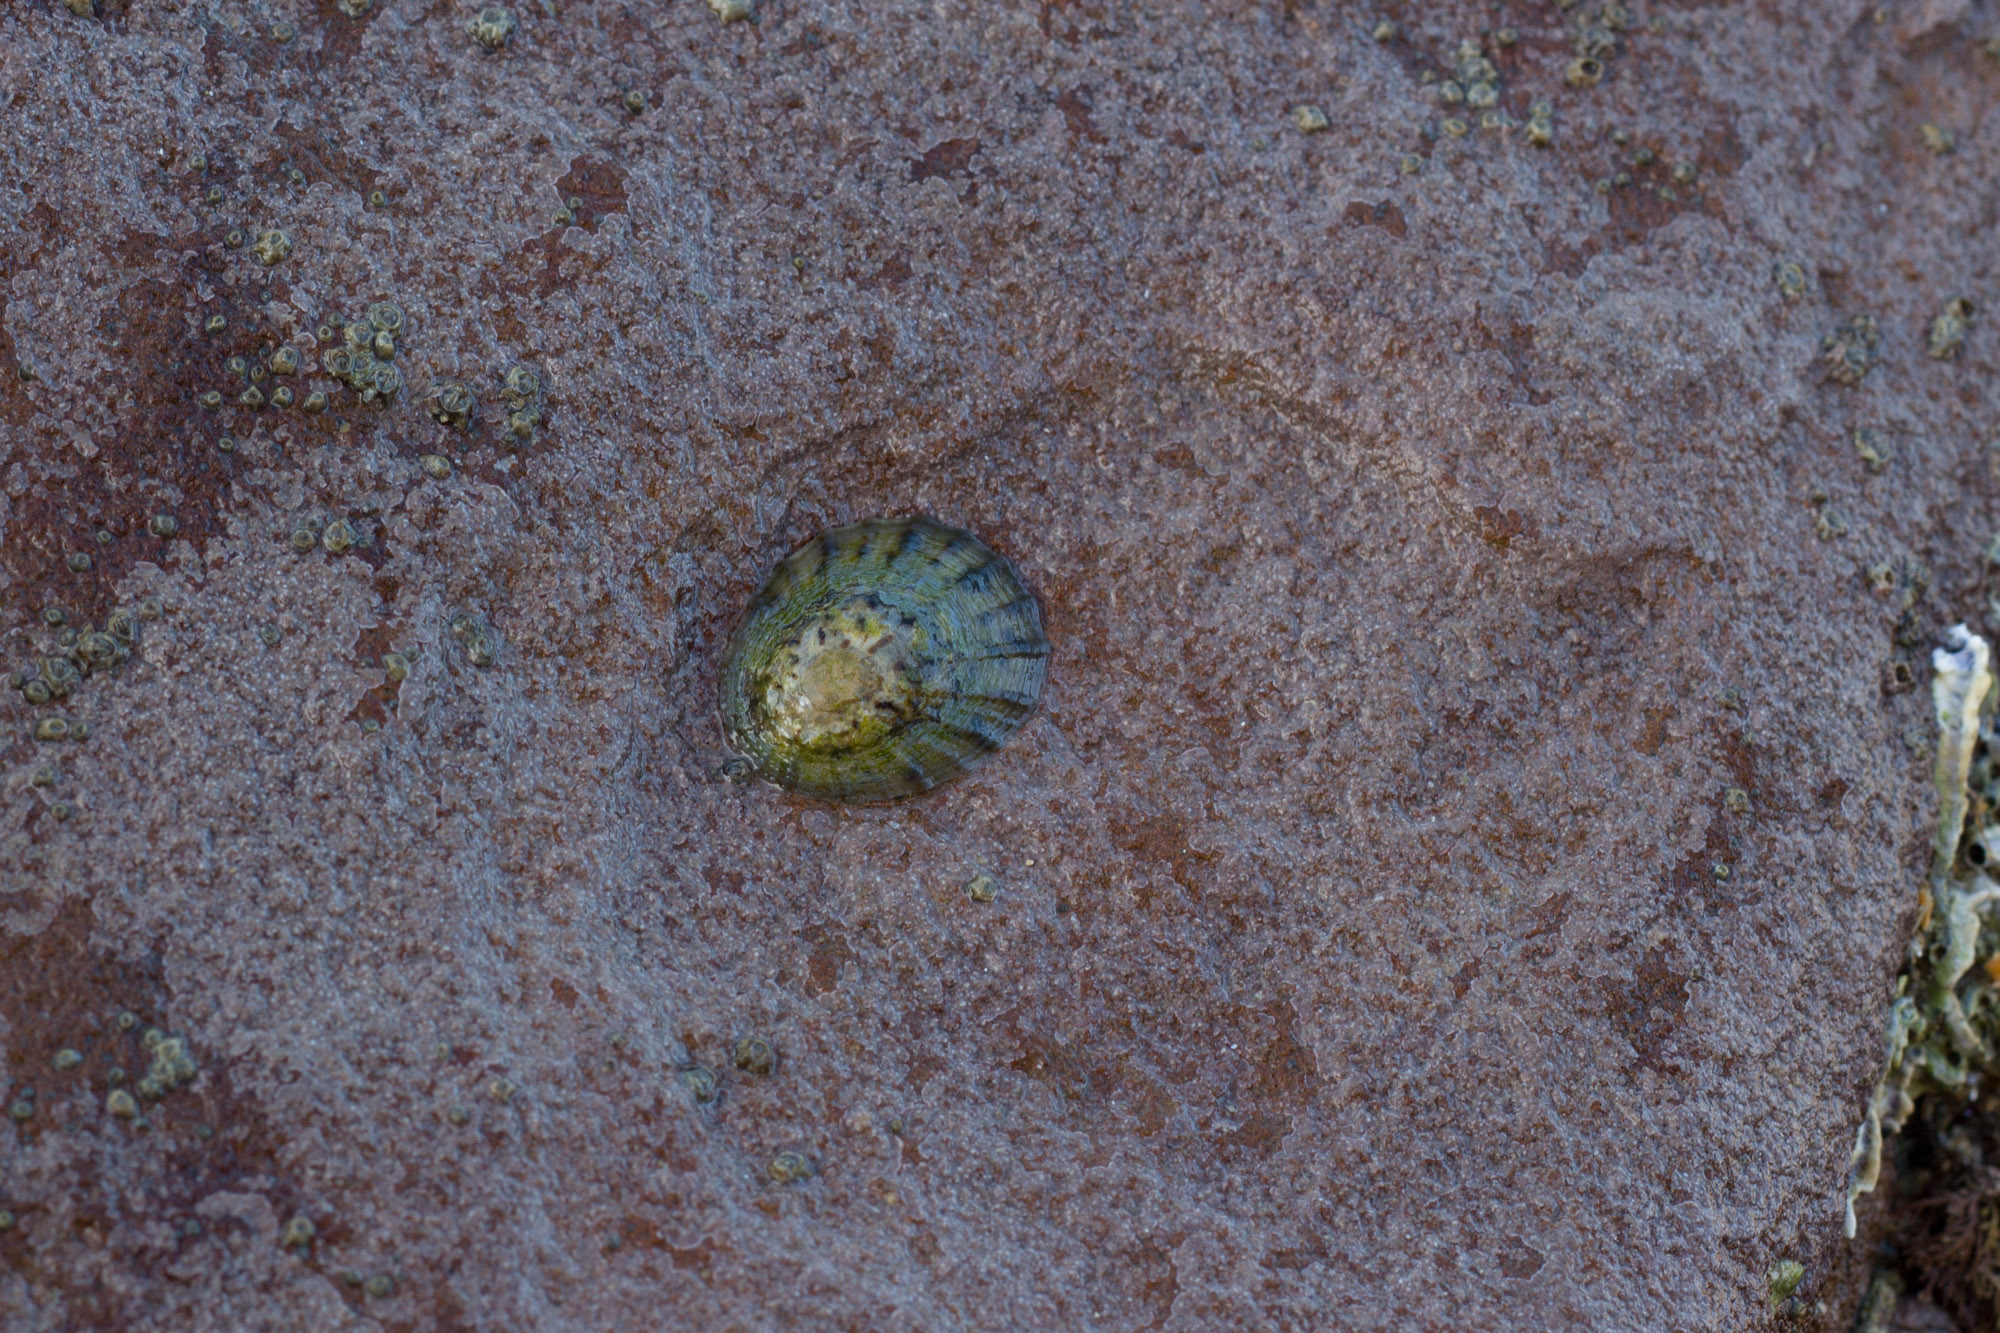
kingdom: Animalia
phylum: Mollusca
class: Gastropoda
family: Nacellidae
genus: Cellana
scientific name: Cellana radians
